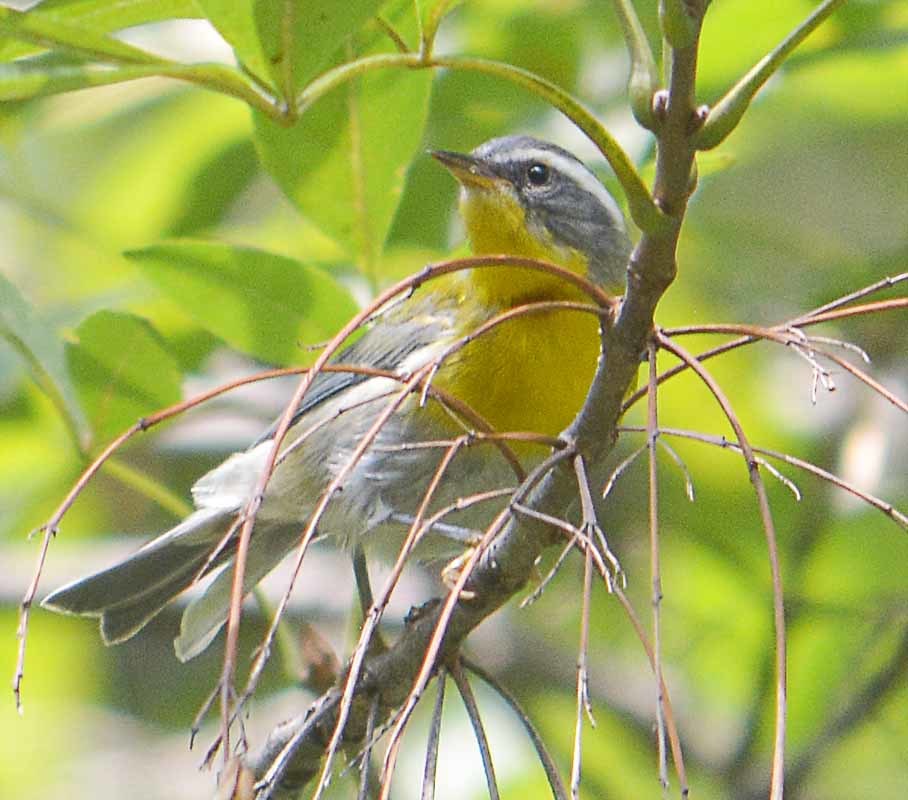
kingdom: Animalia
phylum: Chordata
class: Aves
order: Passeriformes
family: Parulidae
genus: Oreothlypis
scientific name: Oreothlypis superciliosa
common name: Crescent-chested warbler
